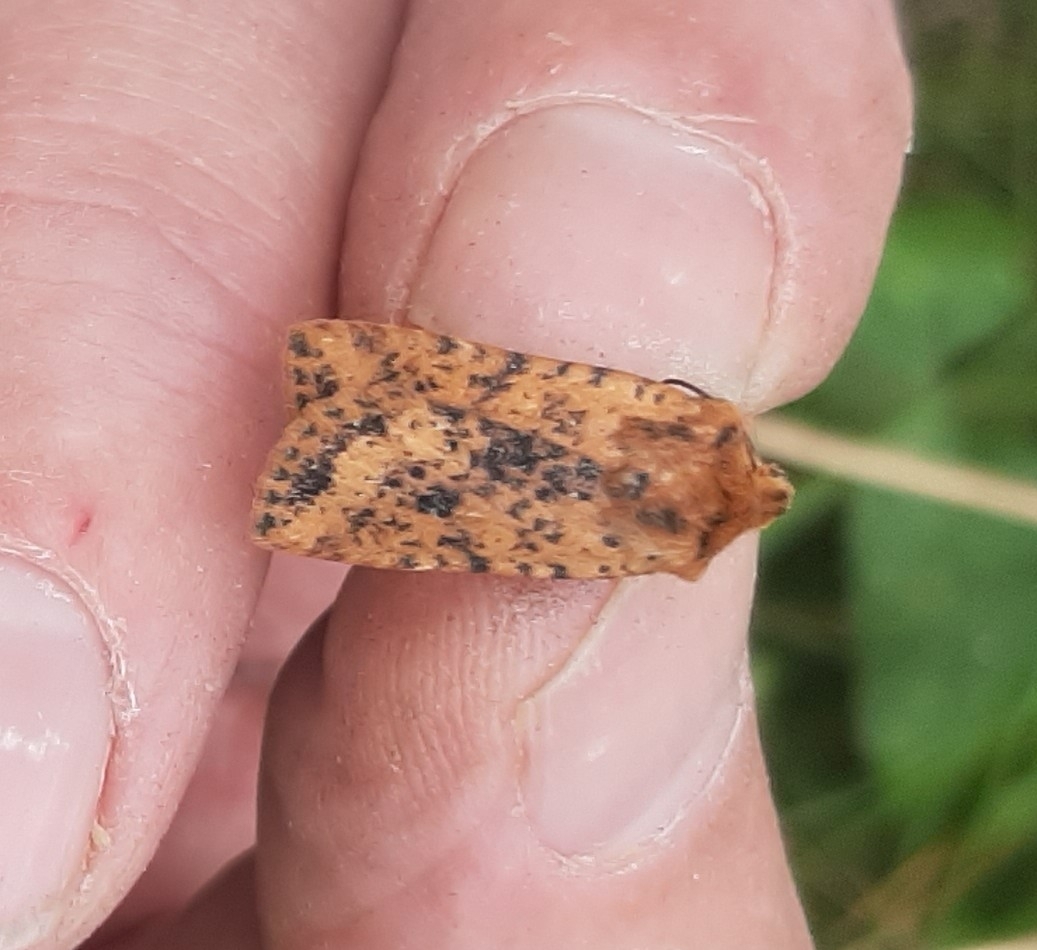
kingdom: Animalia
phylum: Arthropoda
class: Insecta
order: Lepidoptera
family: Noctuidae
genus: Conistra
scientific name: Conistra rubiginea
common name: Dotted chestnut
